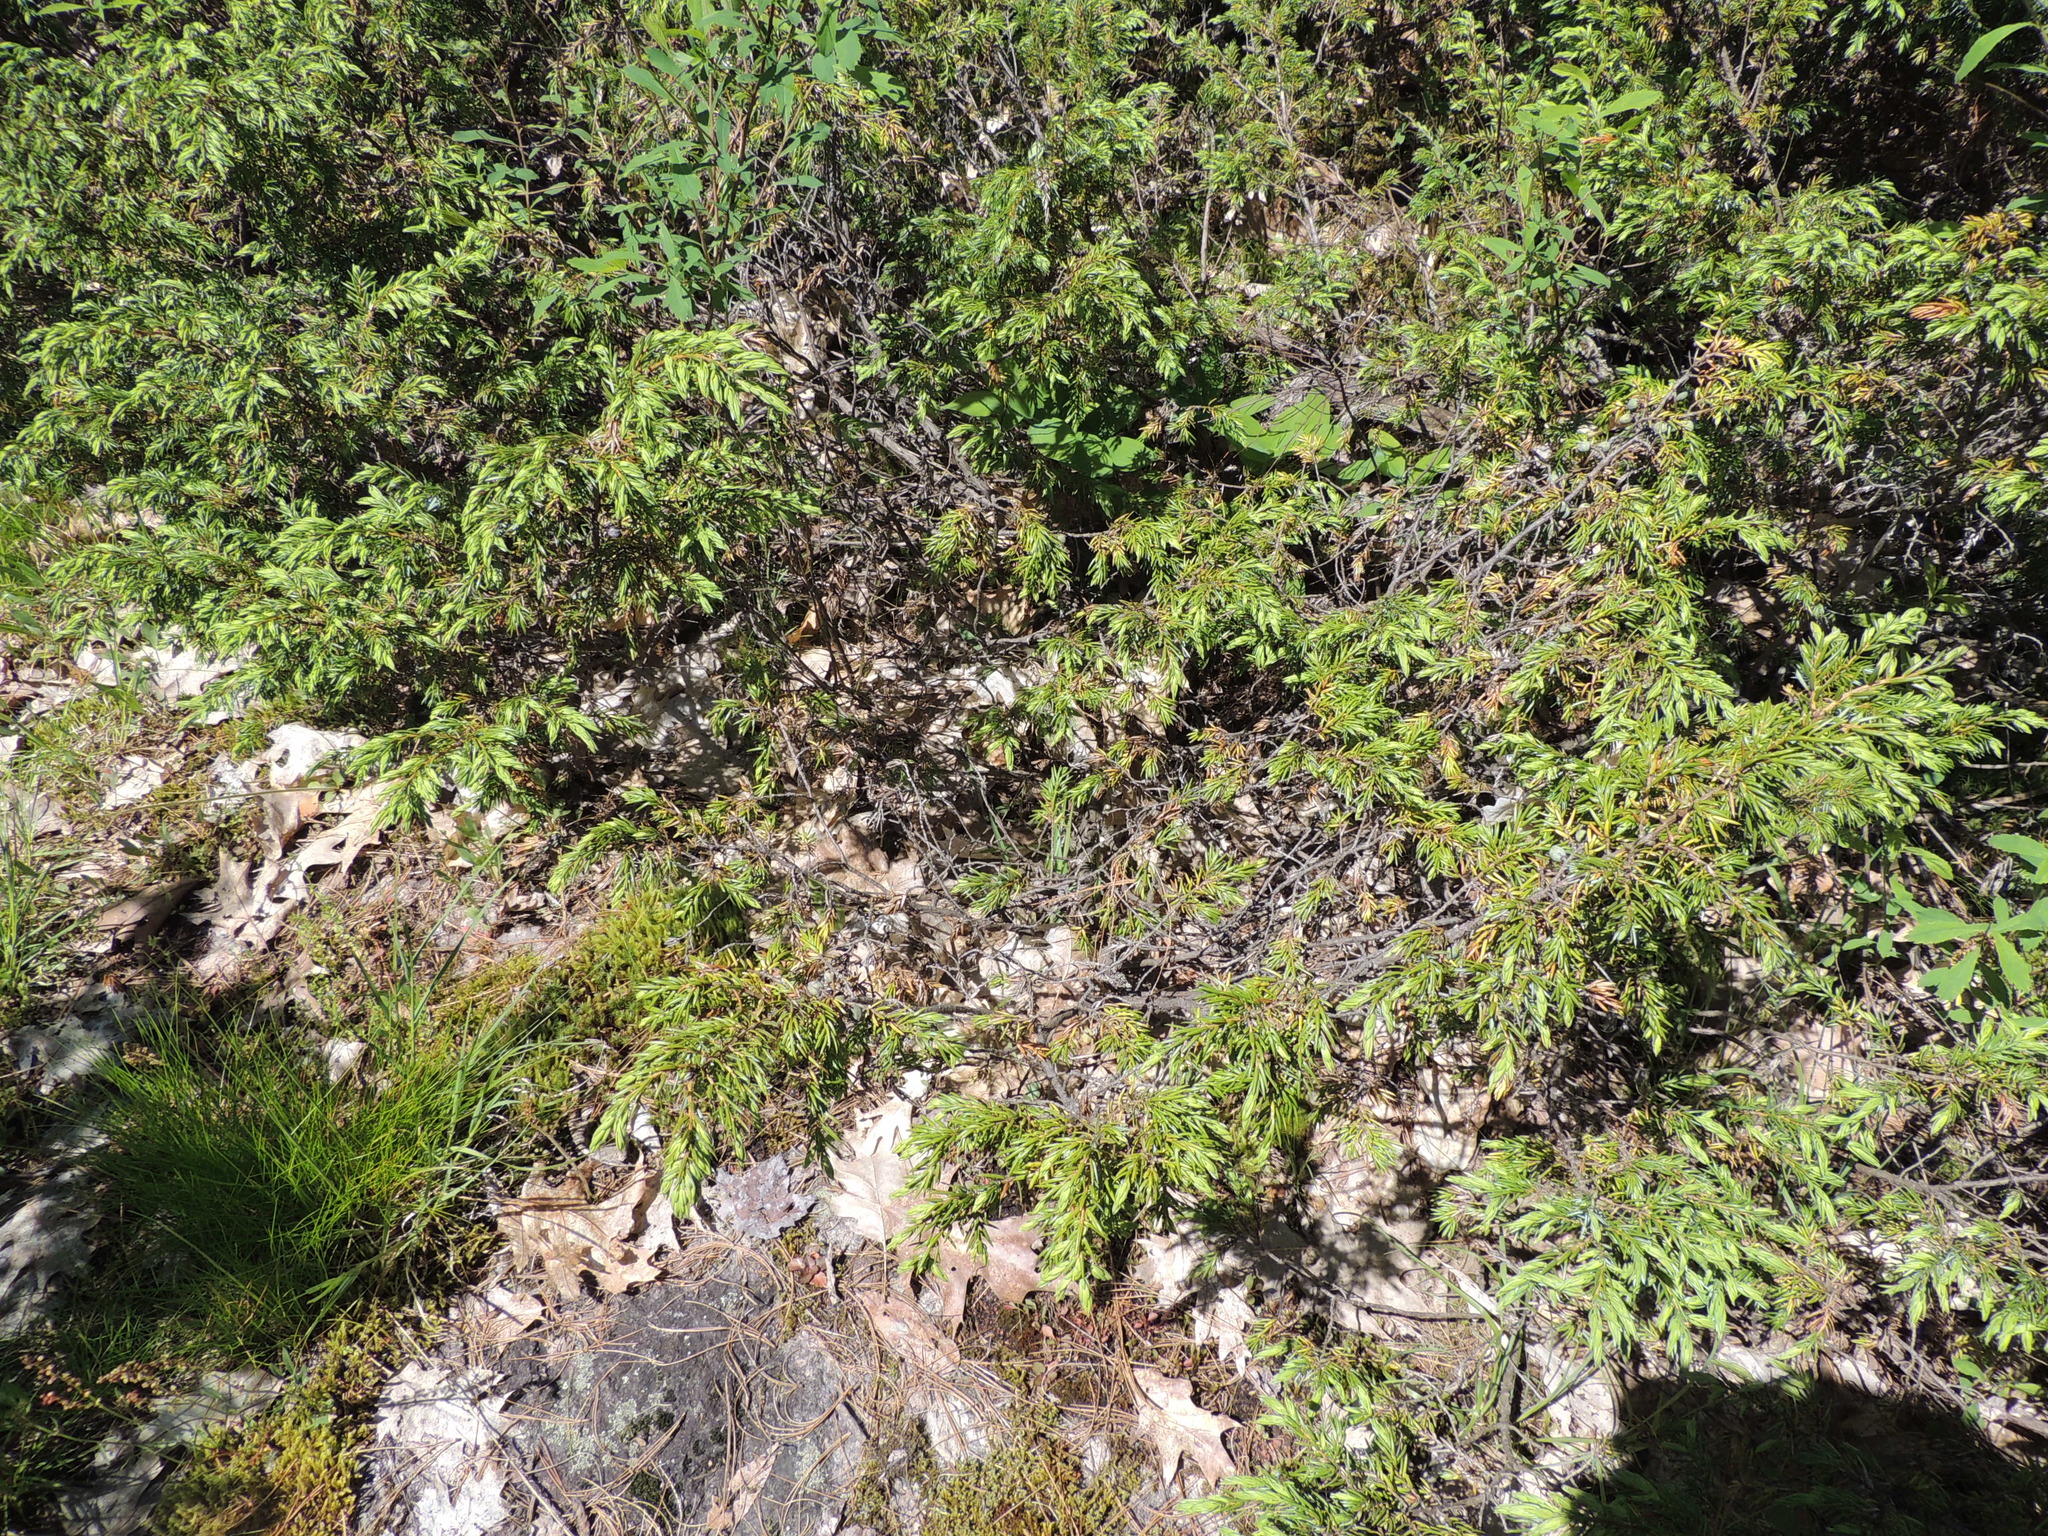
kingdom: Plantae
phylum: Tracheophyta
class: Pinopsida
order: Pinales
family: Cupressaceae
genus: Juniperus
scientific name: Juniperus communis
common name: Common juniper
